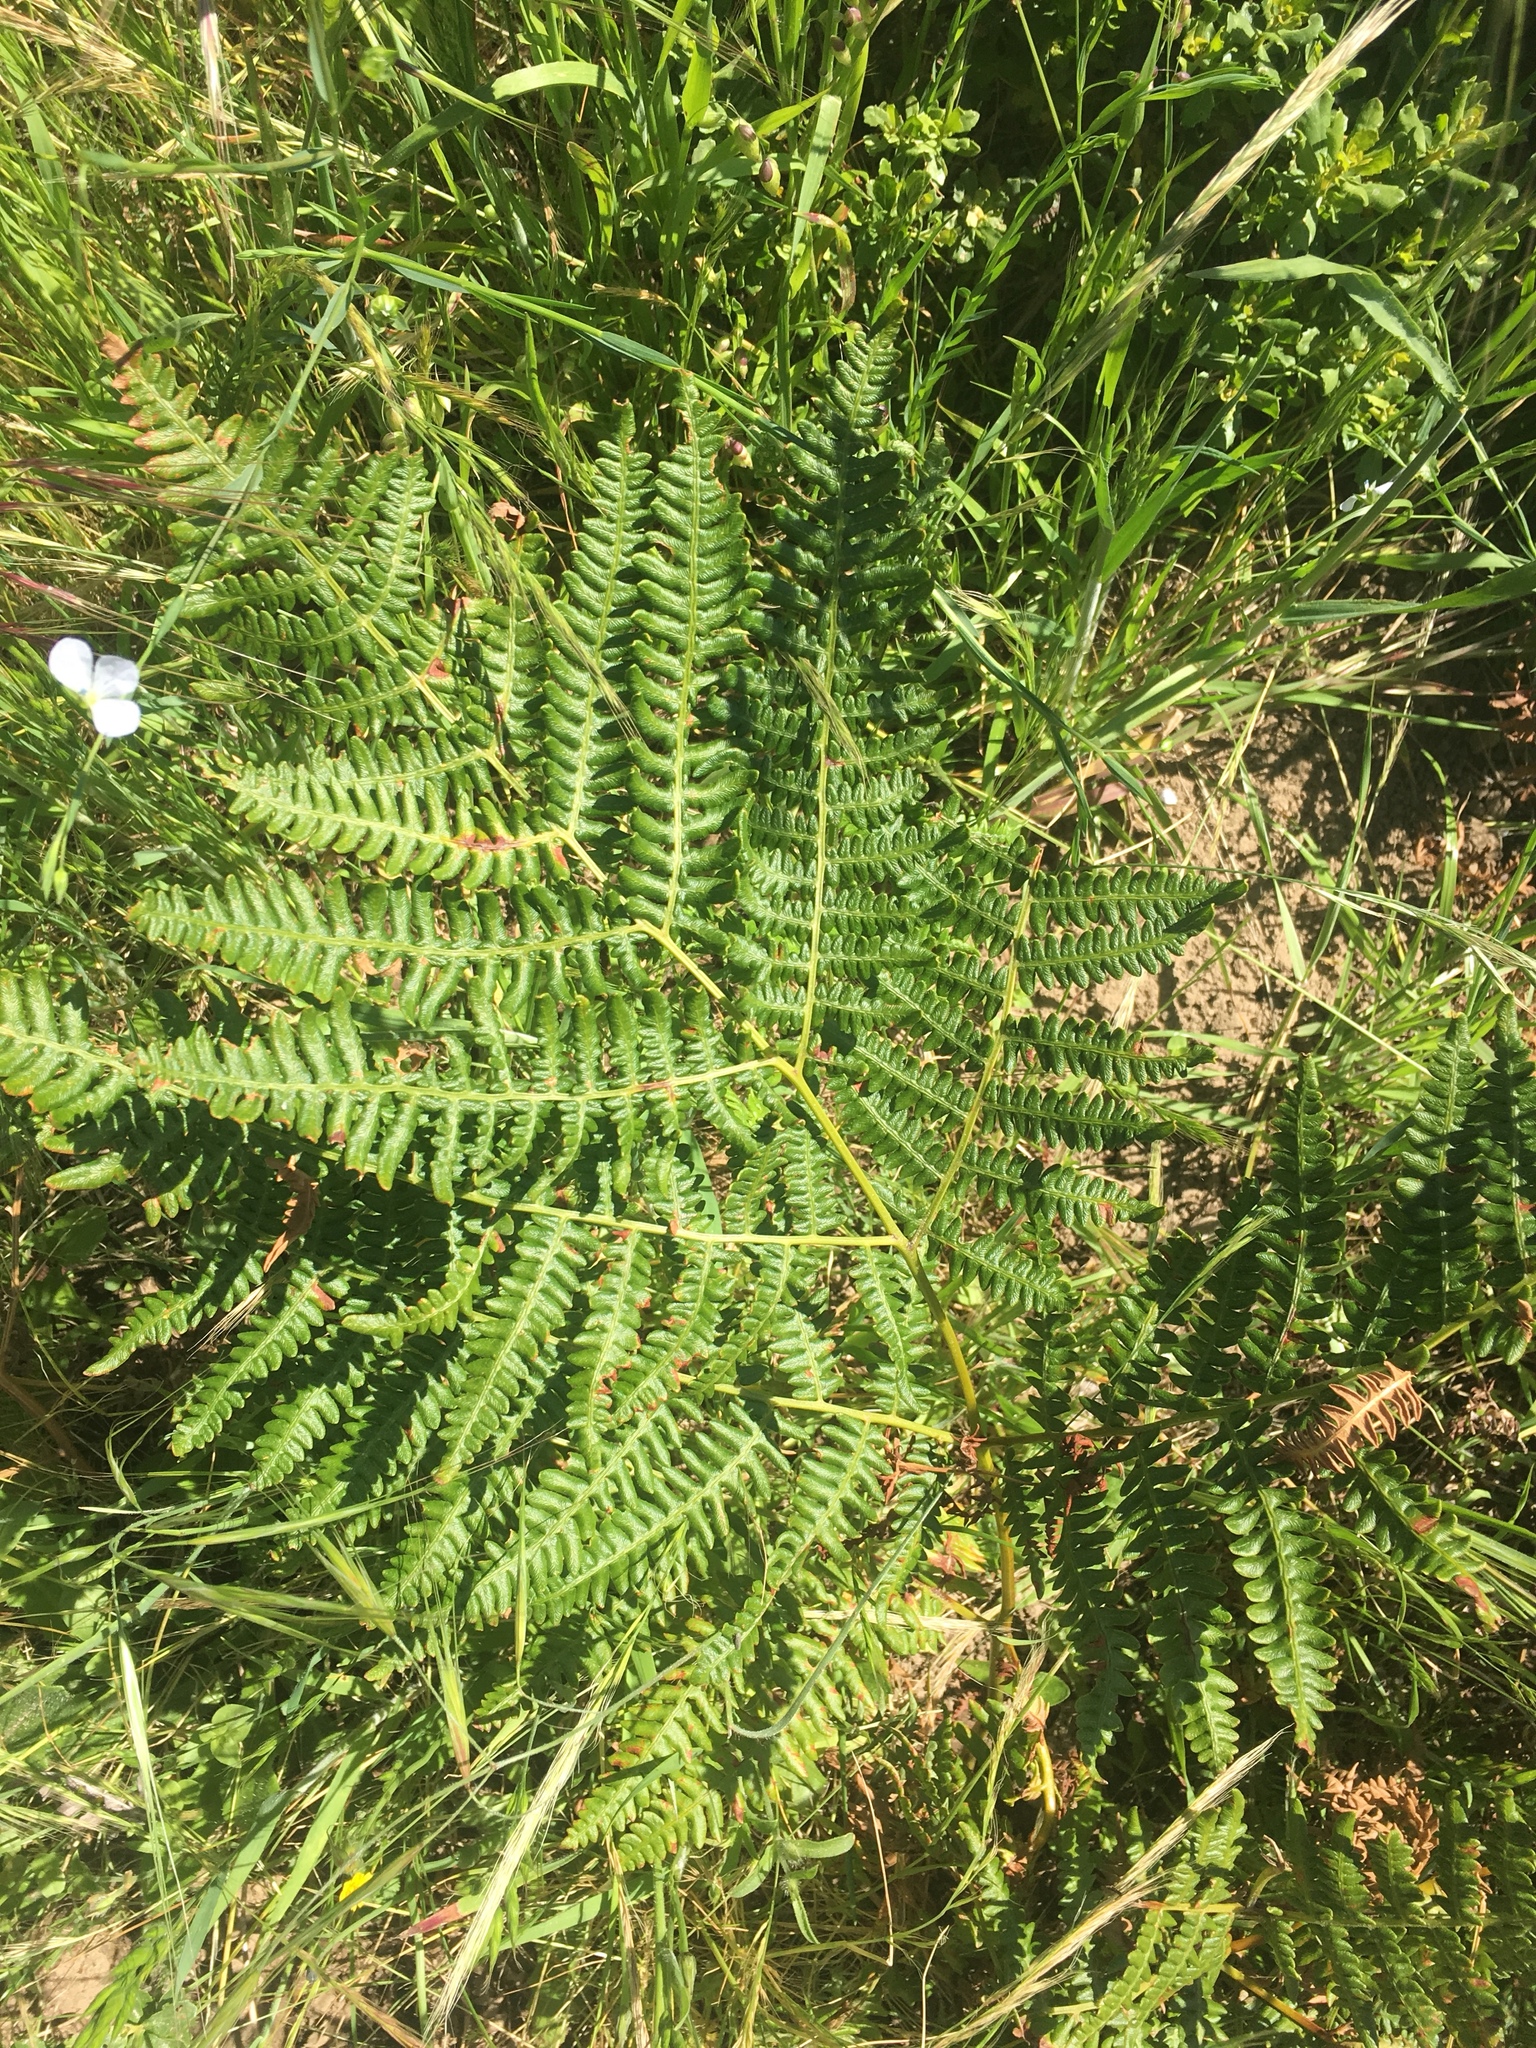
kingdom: Plantae
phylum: Tracheophyta
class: Polypodiopsida
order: Polypodiales
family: Dennstaedtiaceae
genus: Pteridium
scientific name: Pteridium aquilinum
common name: Bracken
